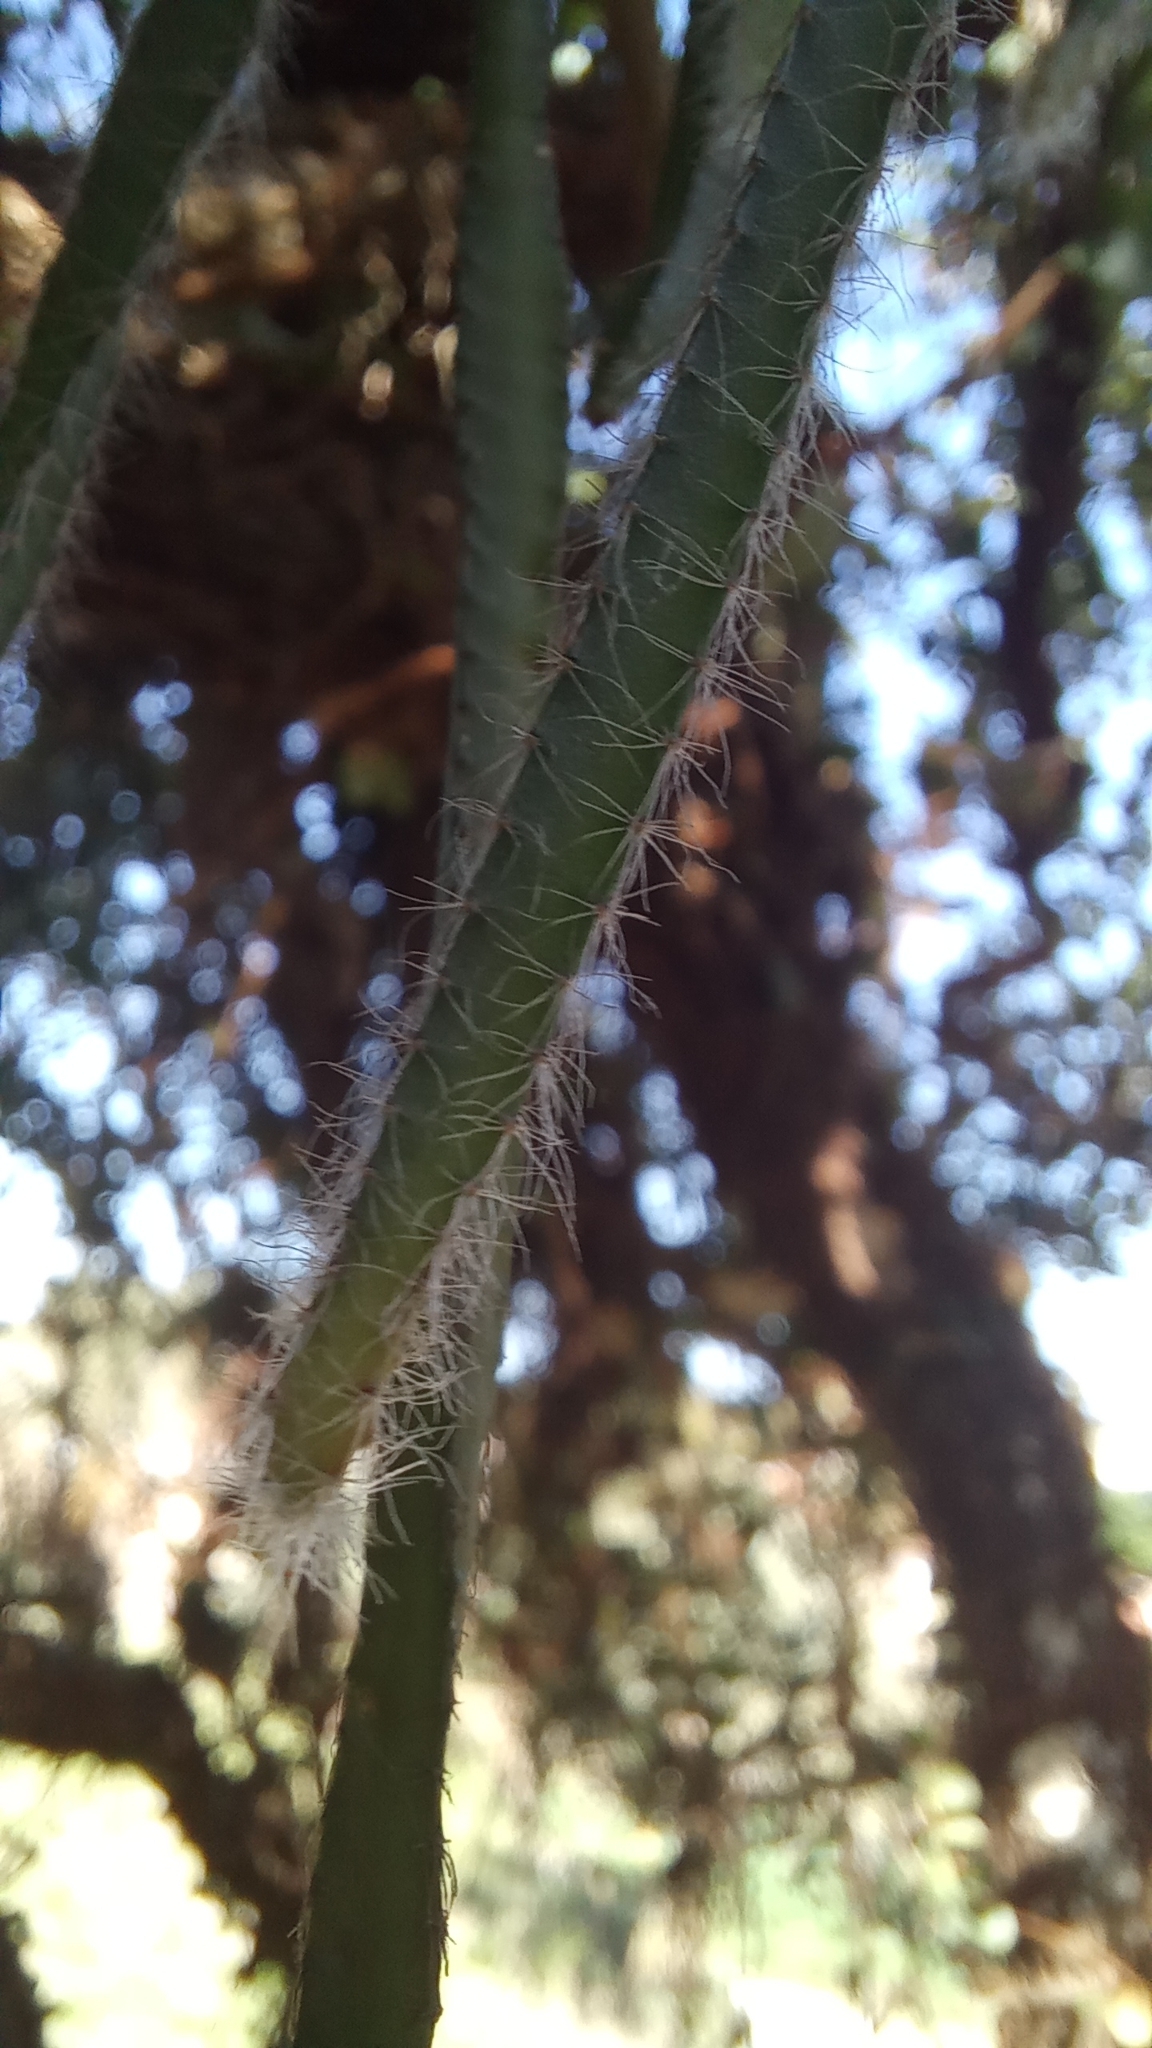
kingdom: Plantae
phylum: Tracheophyta
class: Magnoliopsida
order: Caryophyllales
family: Cactaceae
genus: Lepismium
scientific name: Lepismium cruciforme
